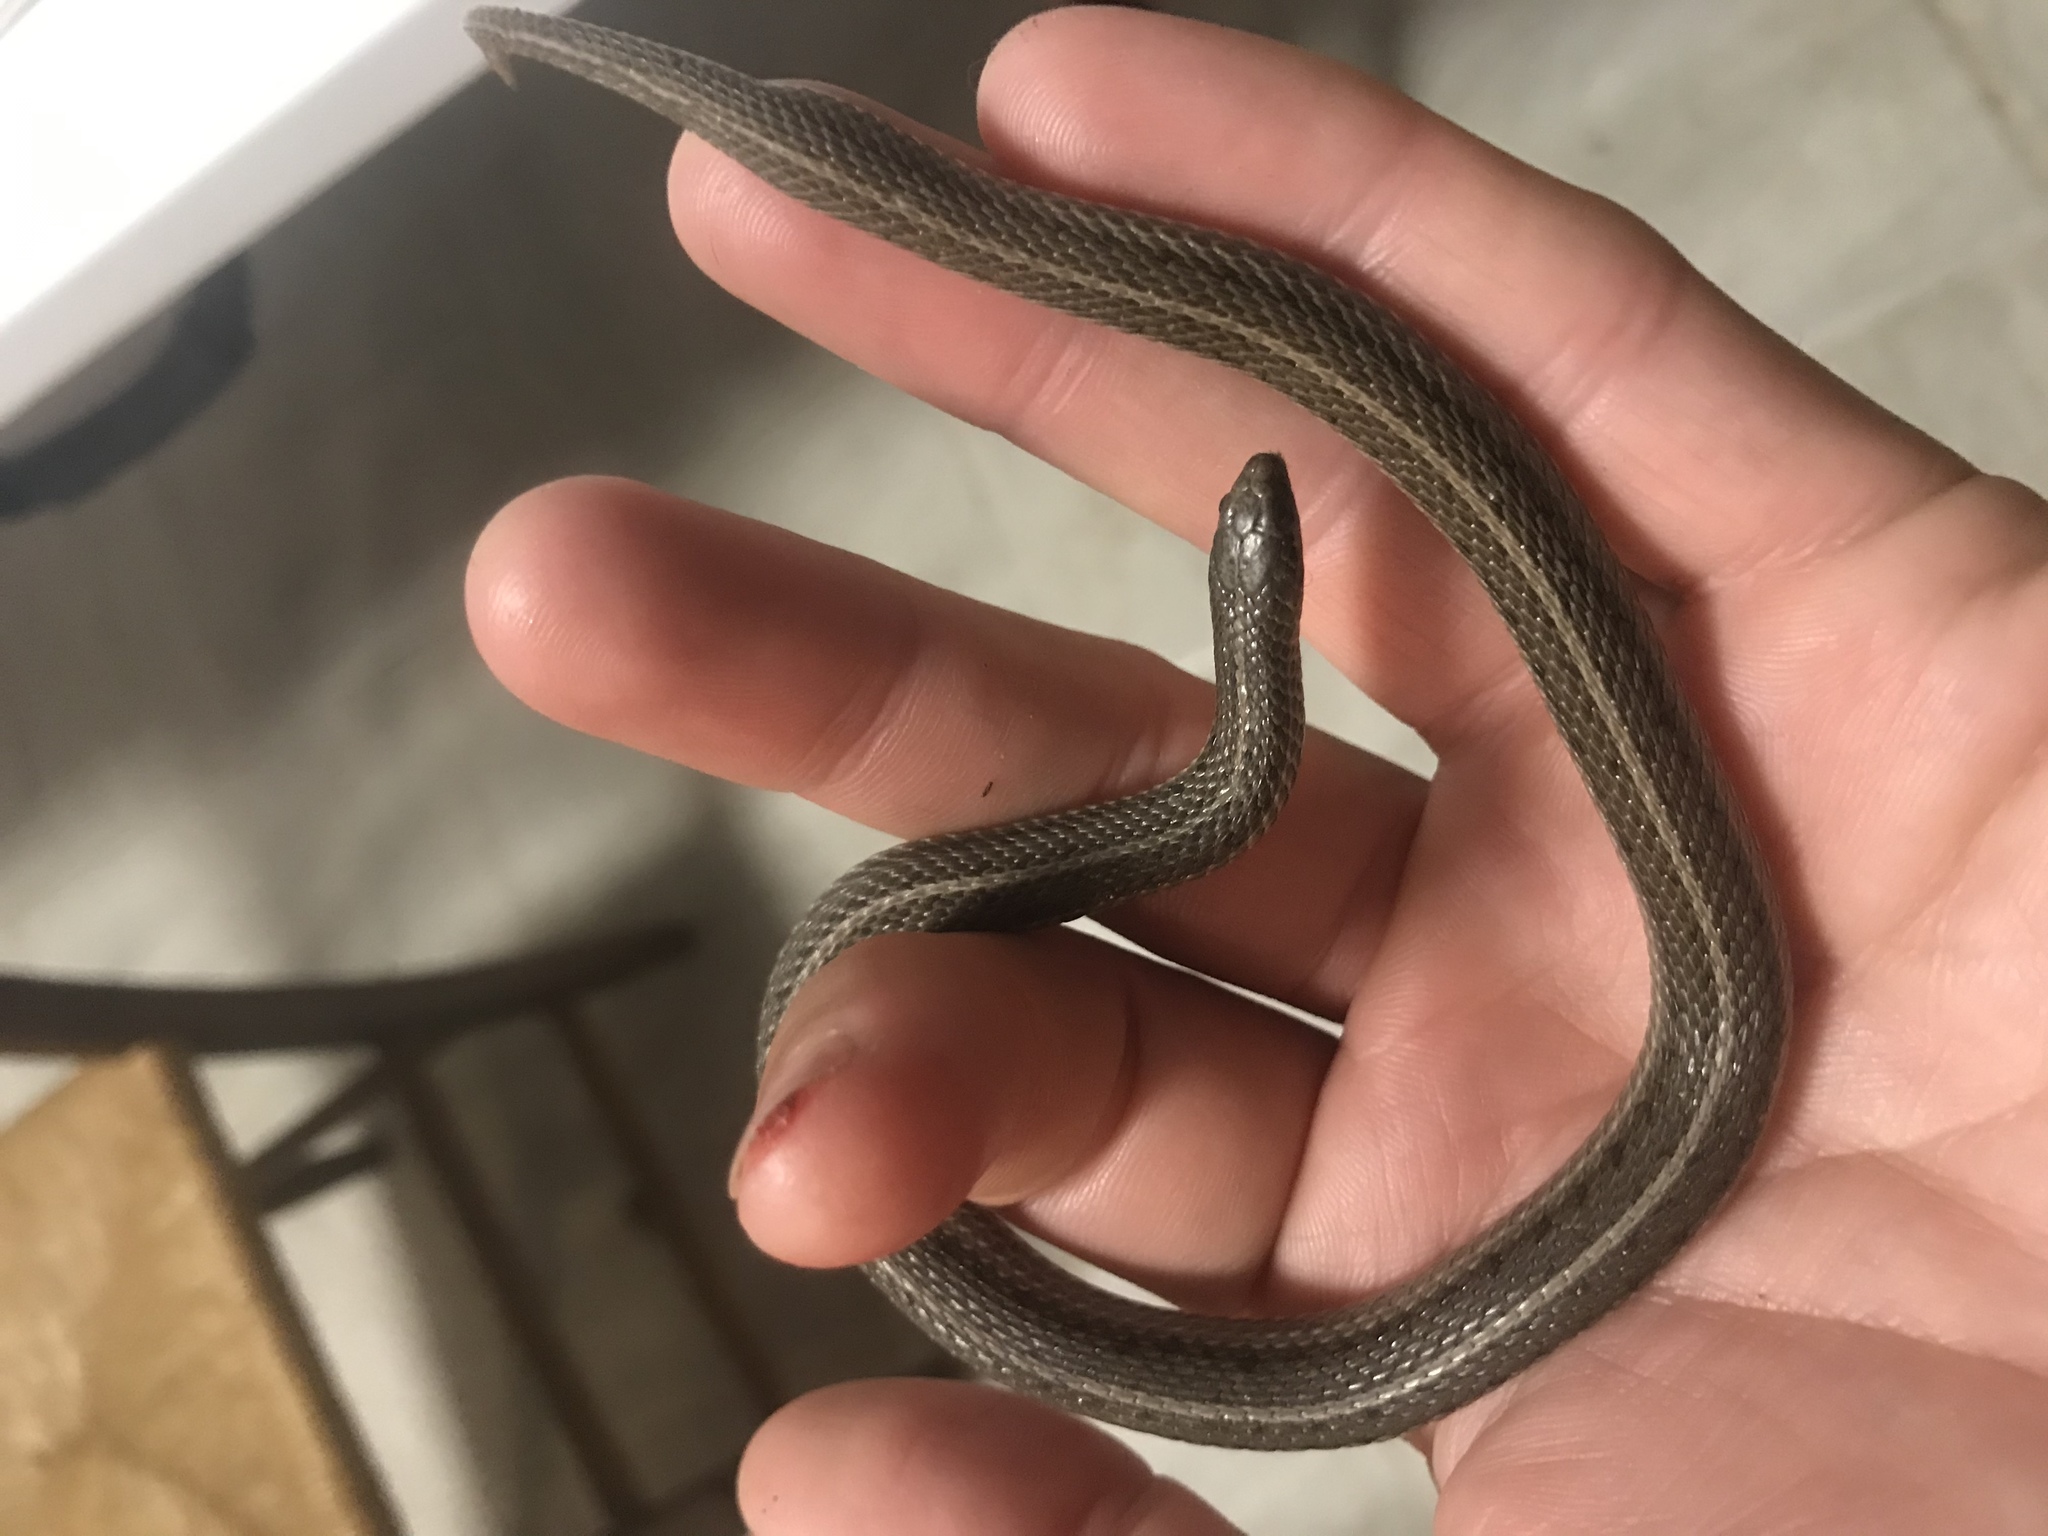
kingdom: Animalia
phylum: Chordata
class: Squamata
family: Colubridae
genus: Tropidoclonion
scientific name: Tropidoclonion lineatum
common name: Lined snake
